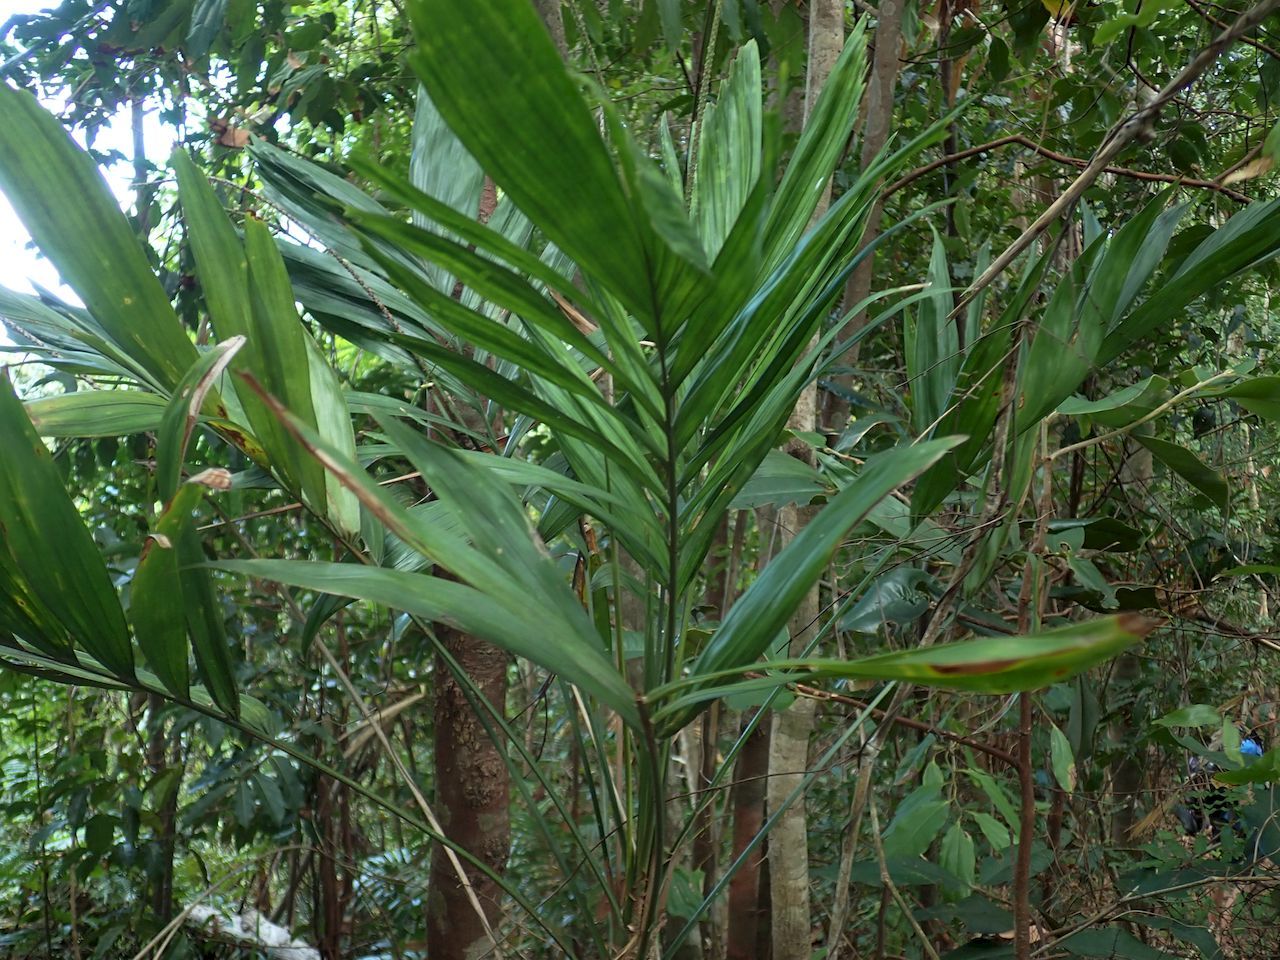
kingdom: Plantae
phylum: Tracheophyta
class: Liliopsida
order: Arecales
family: Arecaceae
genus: Linospadix
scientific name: Linospadix palmerianus
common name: Walking-stick palm
